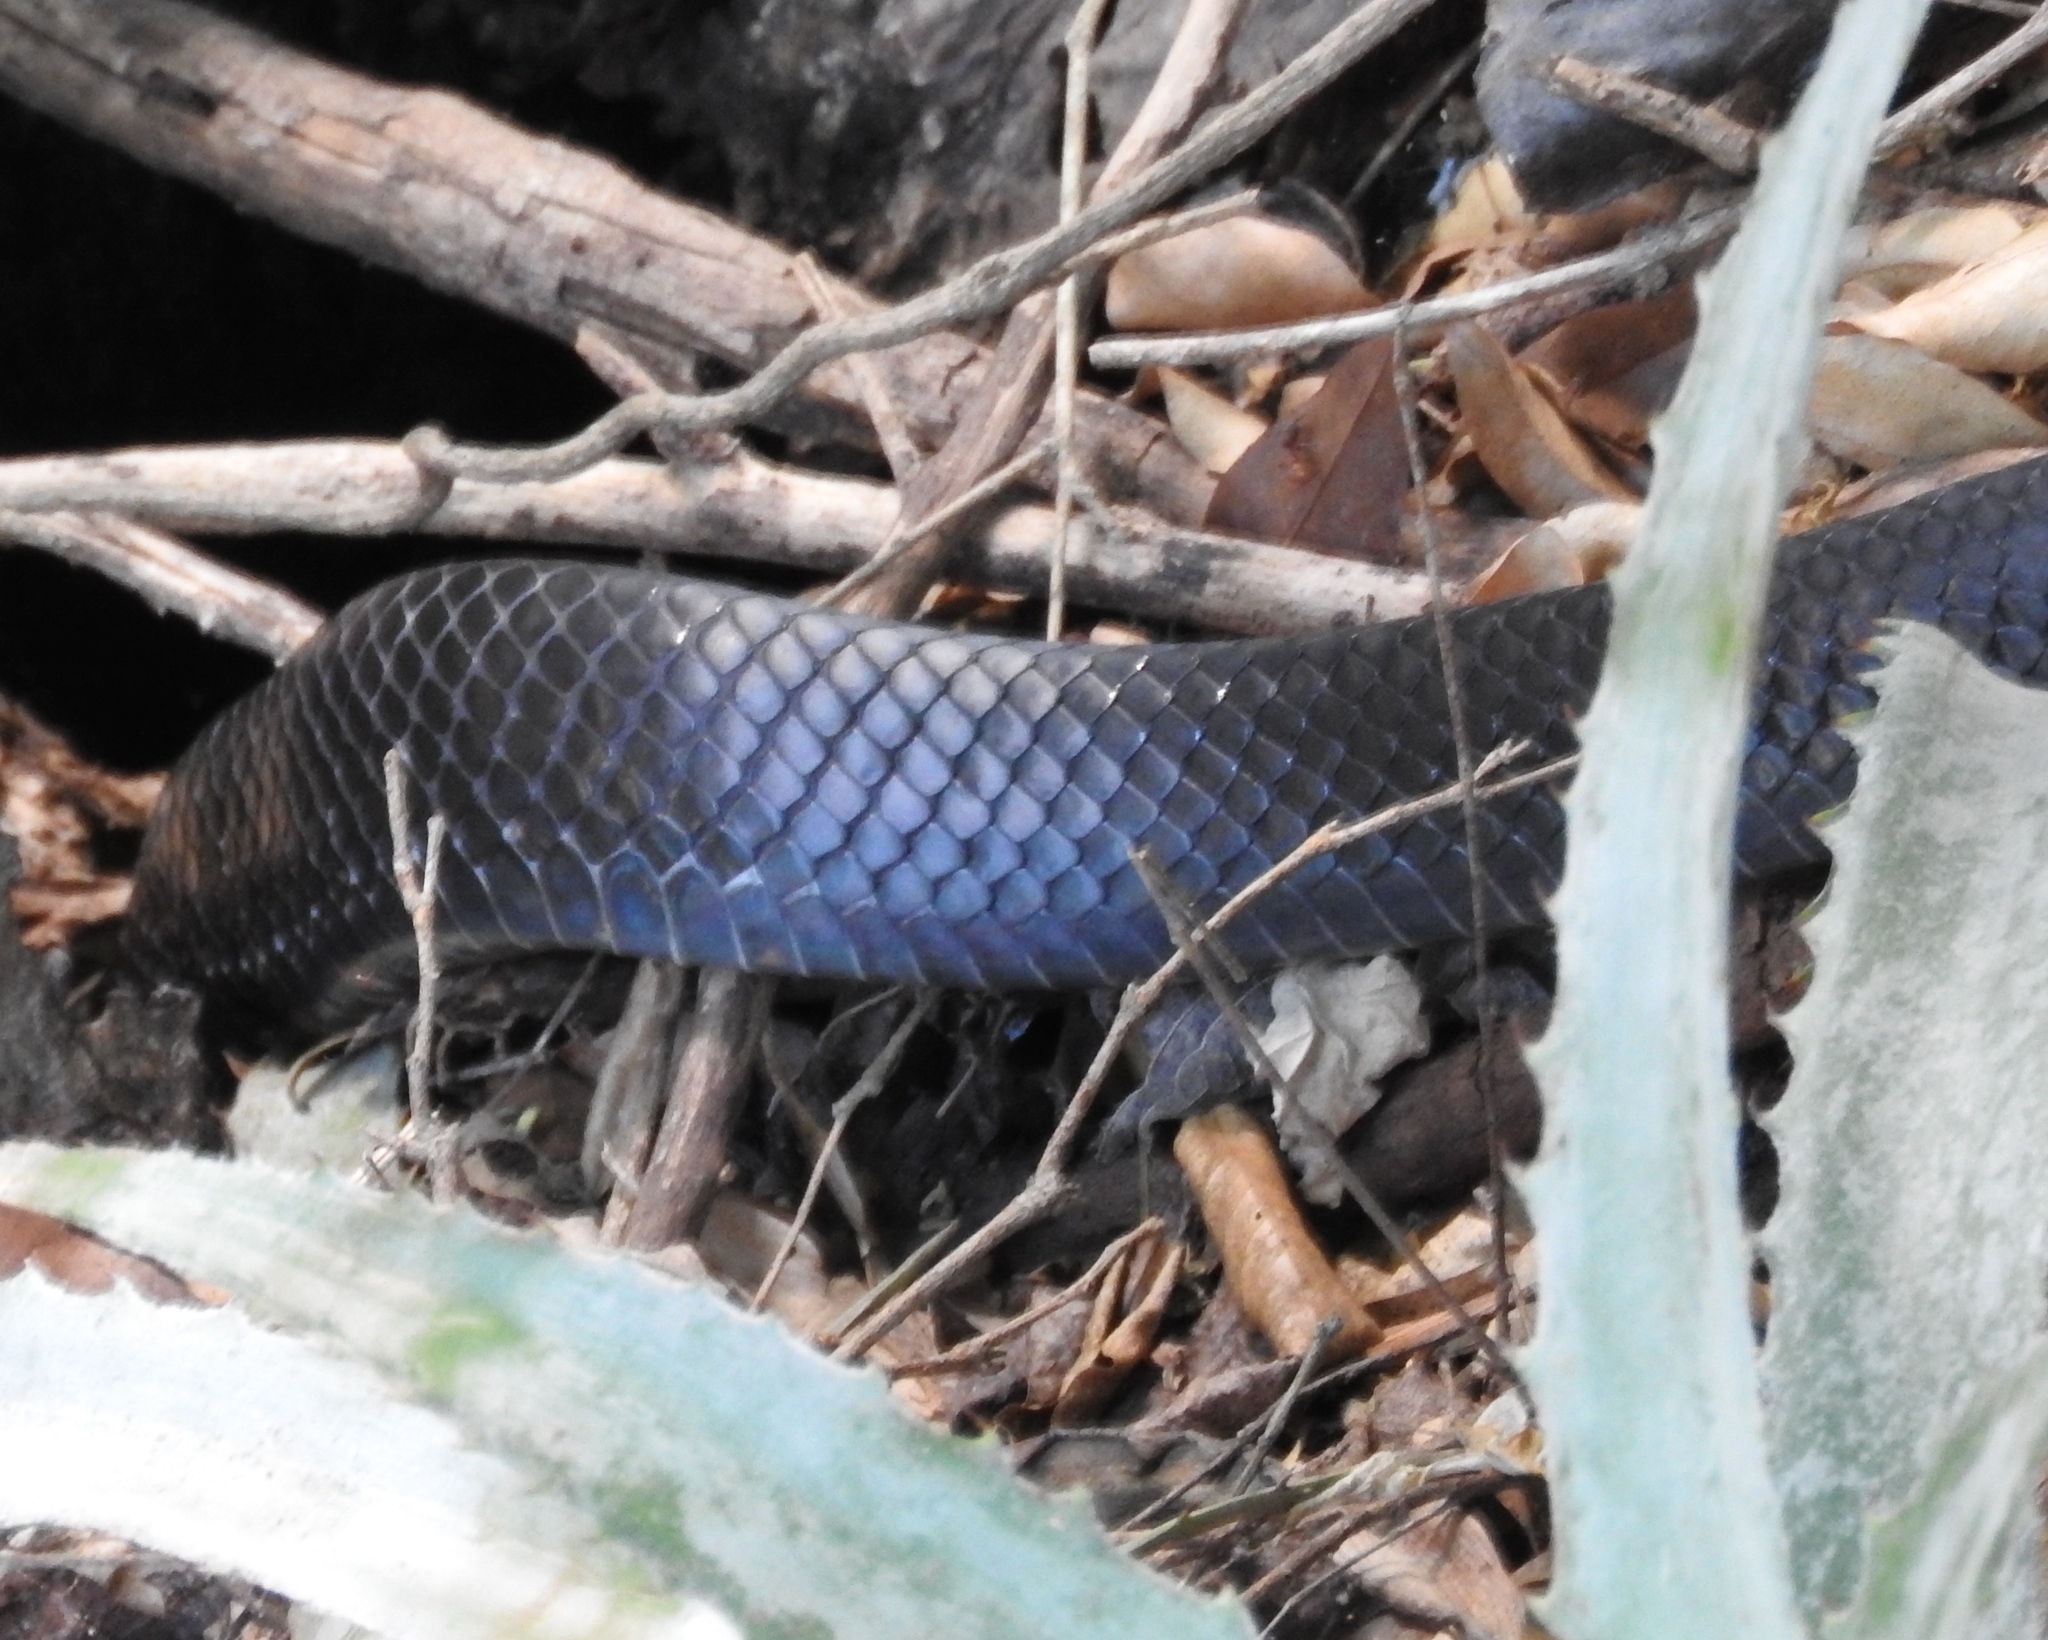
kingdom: Animalia
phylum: Chordata
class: Squamata
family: Colubridae
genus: Drymarchon
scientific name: Drymarchon melanurus
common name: Central american indigo snake
